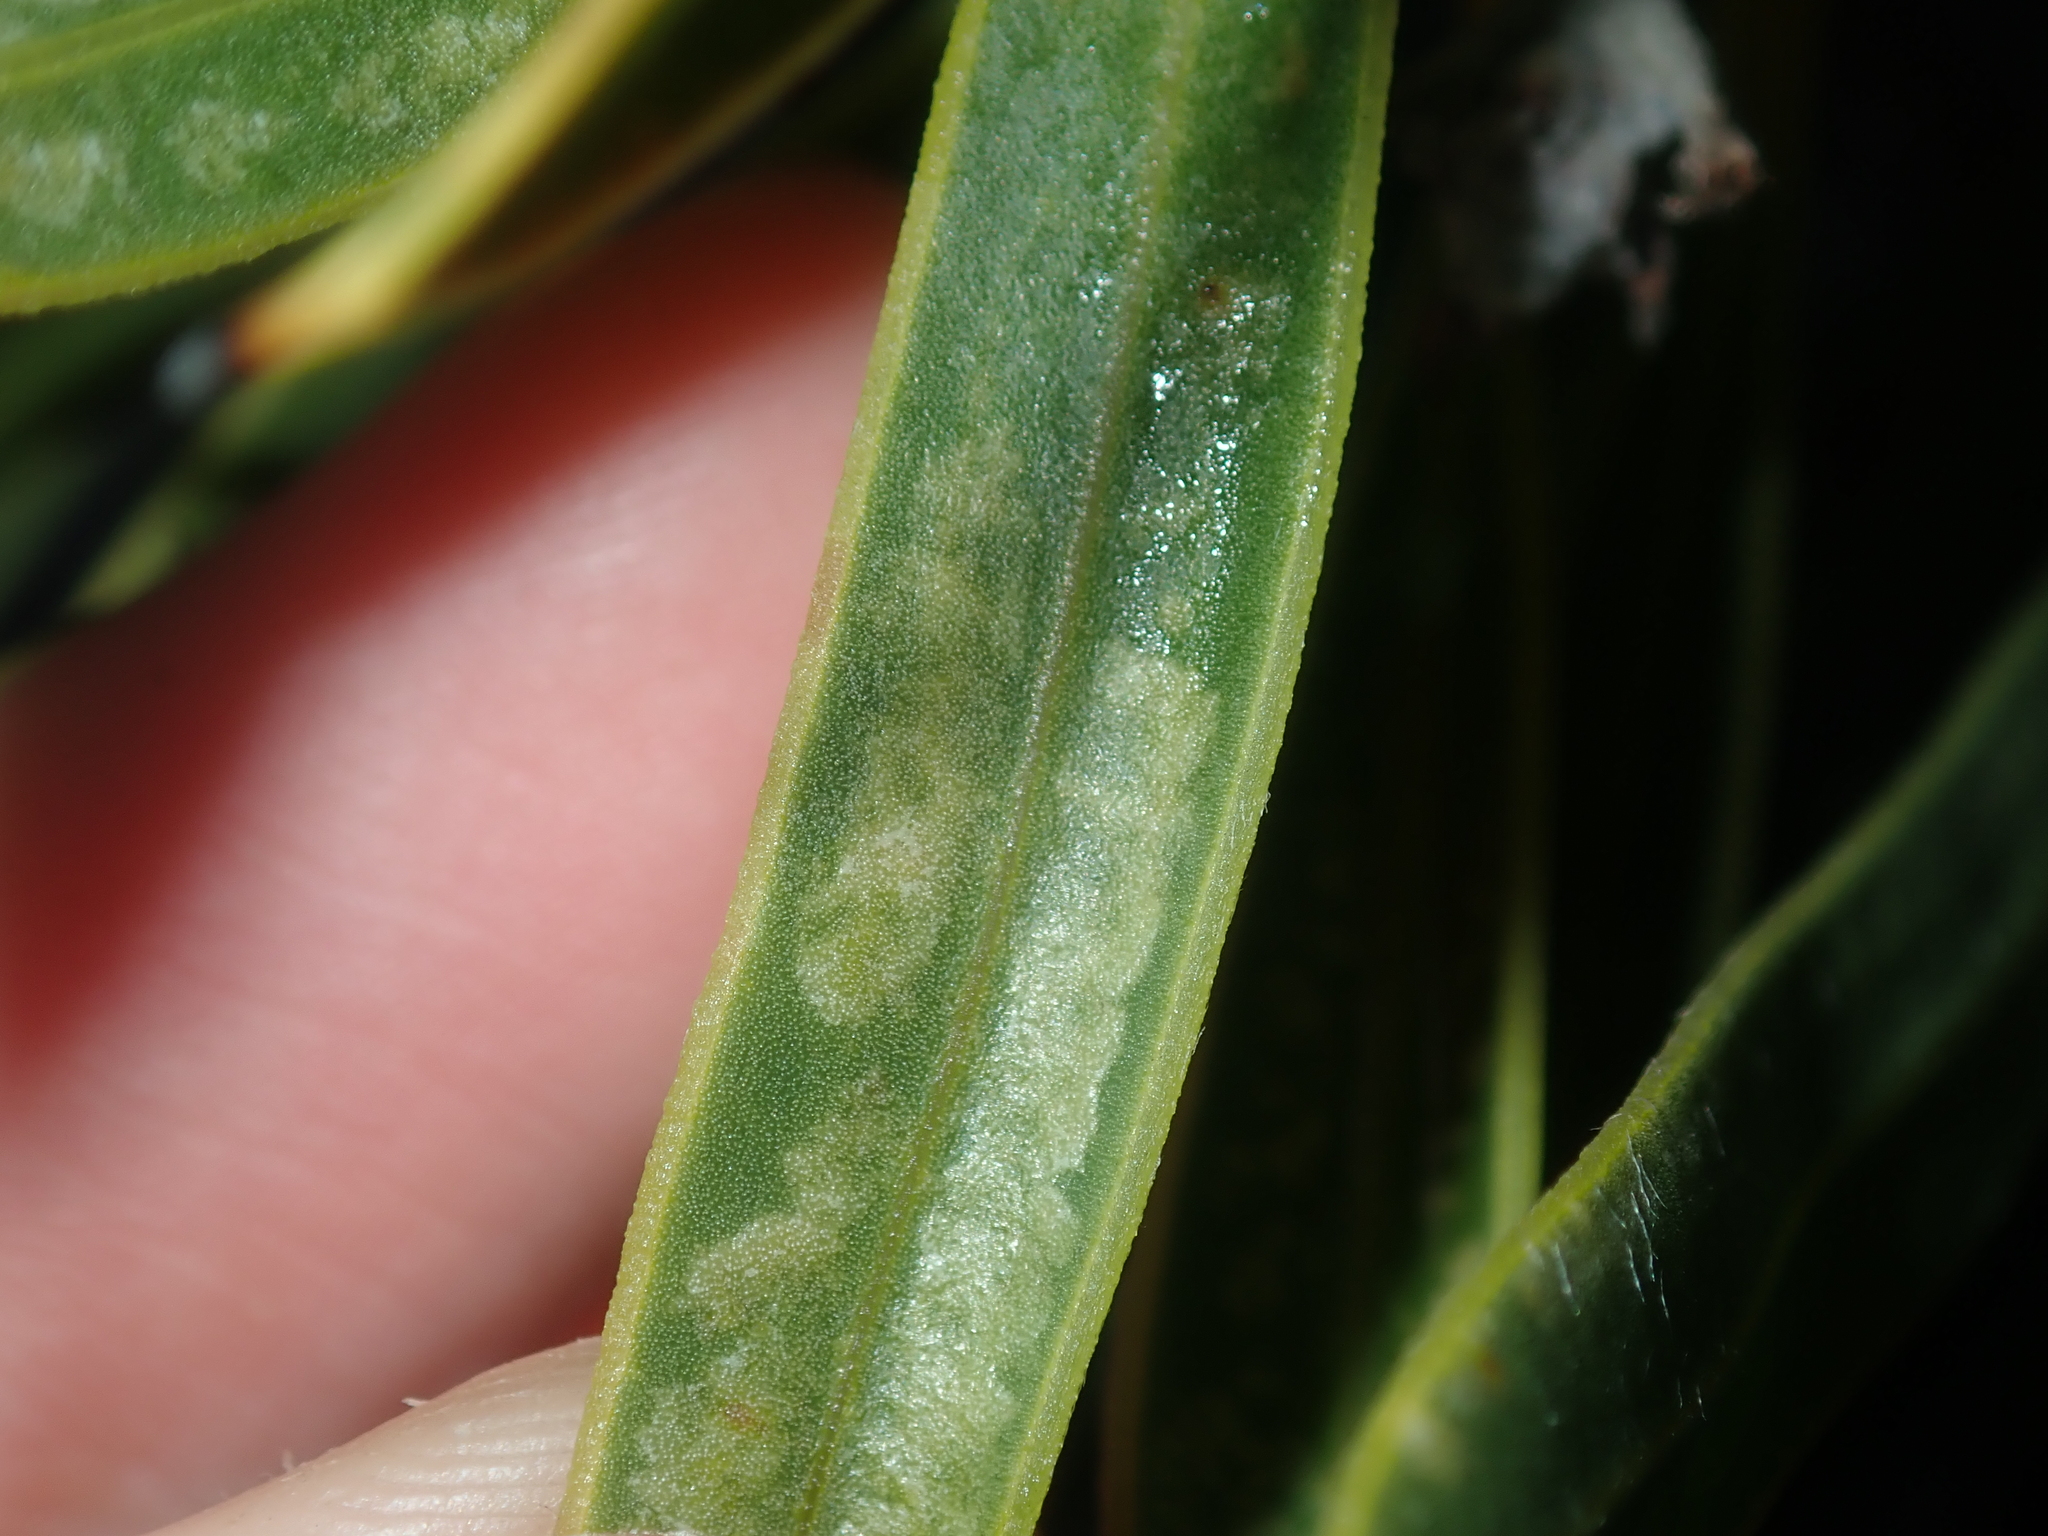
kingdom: Plantae
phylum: Tracheophyta
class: Magnoliopsida
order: Proteales
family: Proteaceae
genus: Hakea
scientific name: Hakea eneabba
